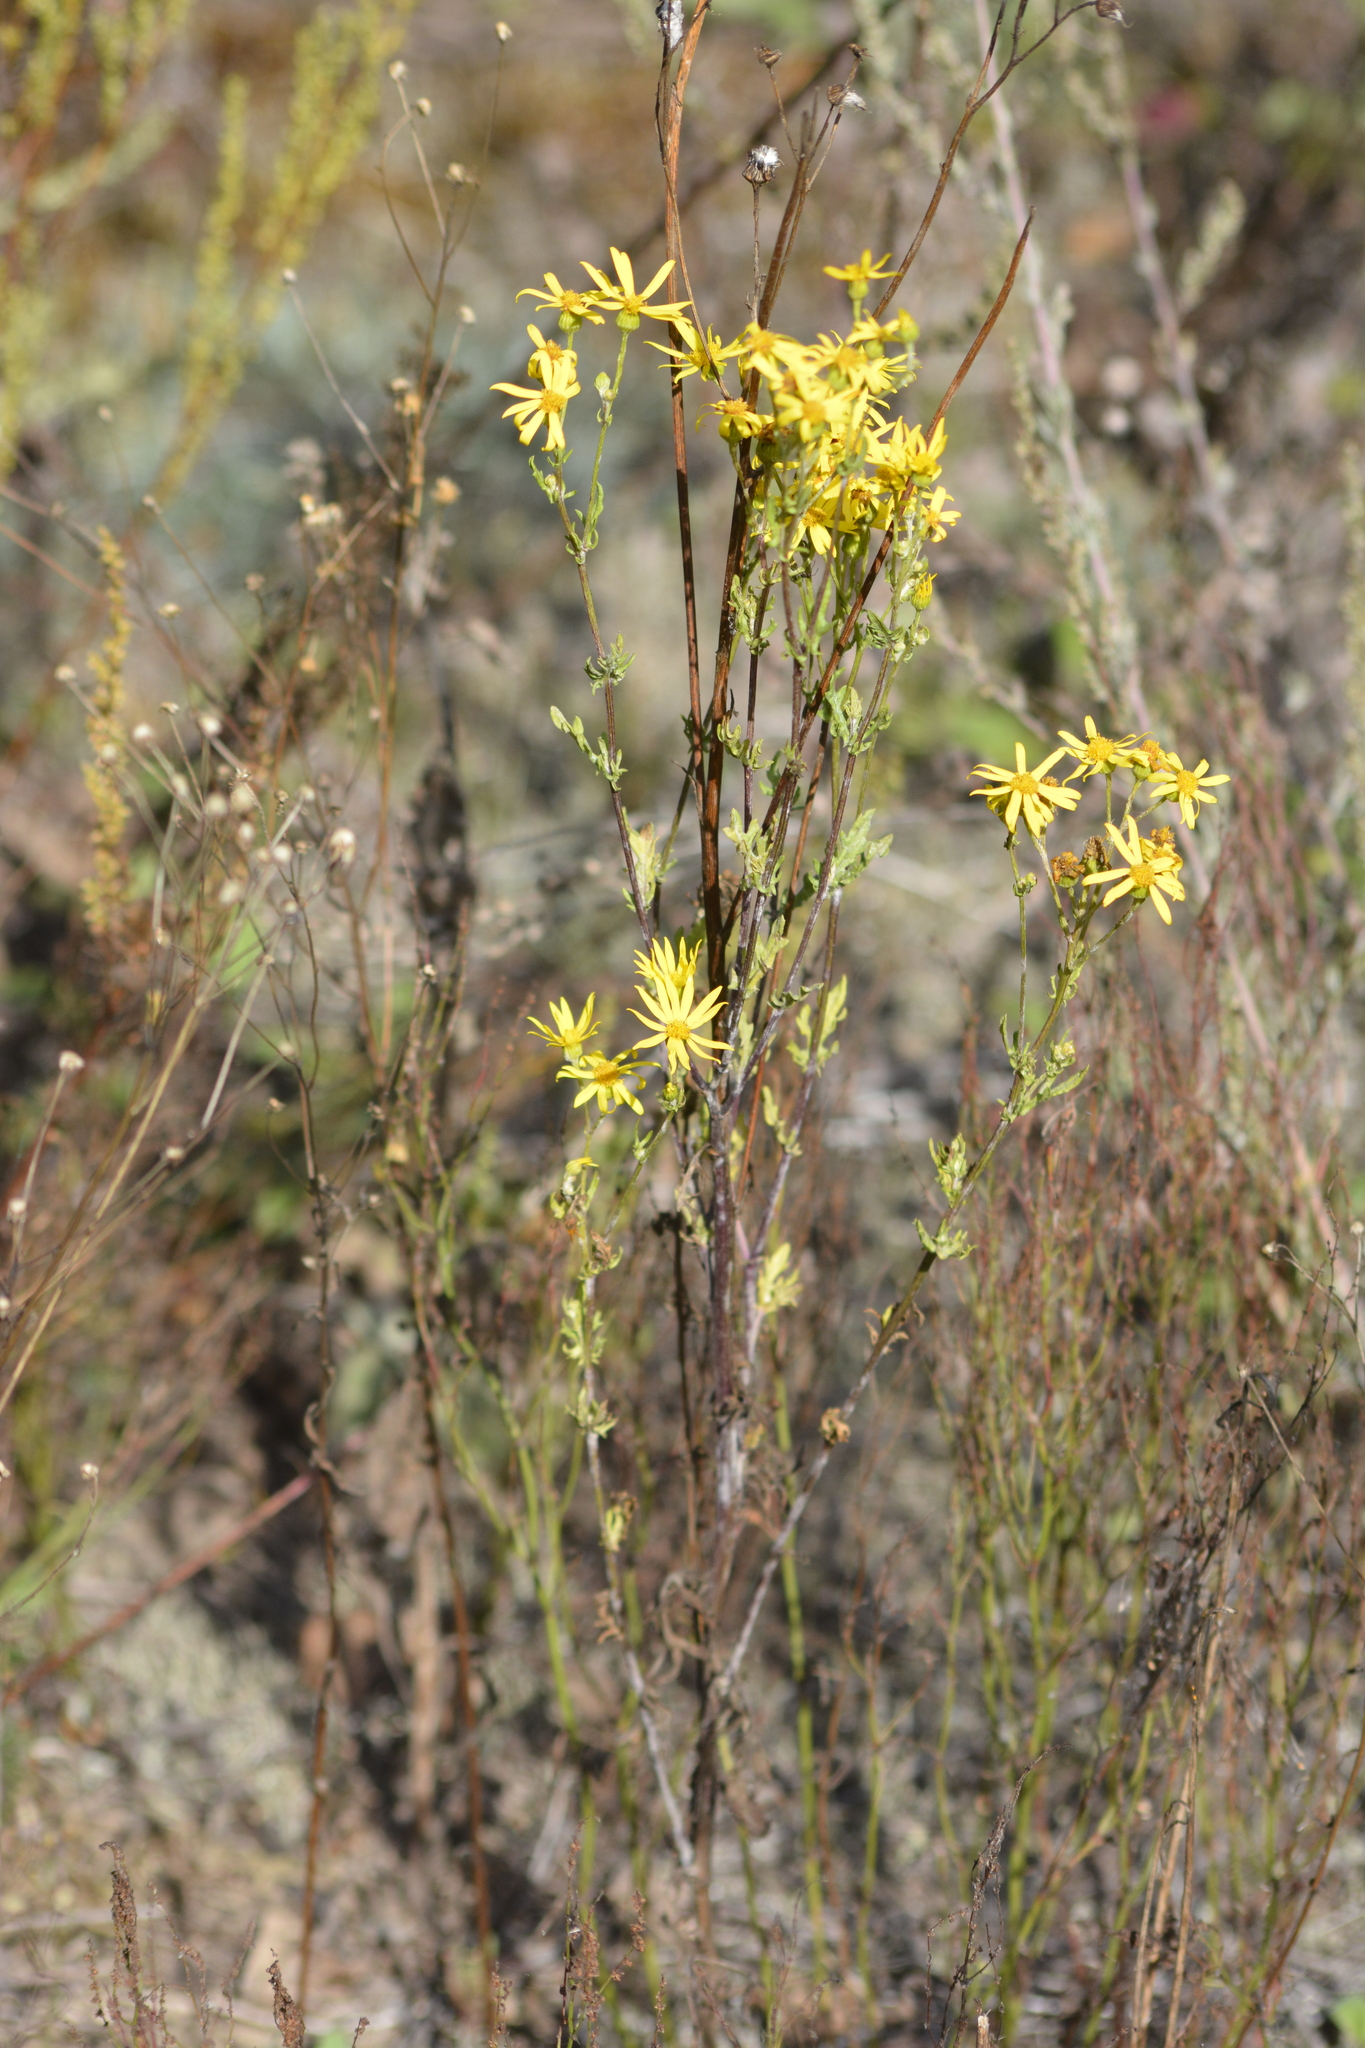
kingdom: Plantae
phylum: Tracheophyta
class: Magnoliopsida
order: Asterales
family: Asteraceae
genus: Jacobaea
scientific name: Jacobaea vulgaris
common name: Stinking willie
